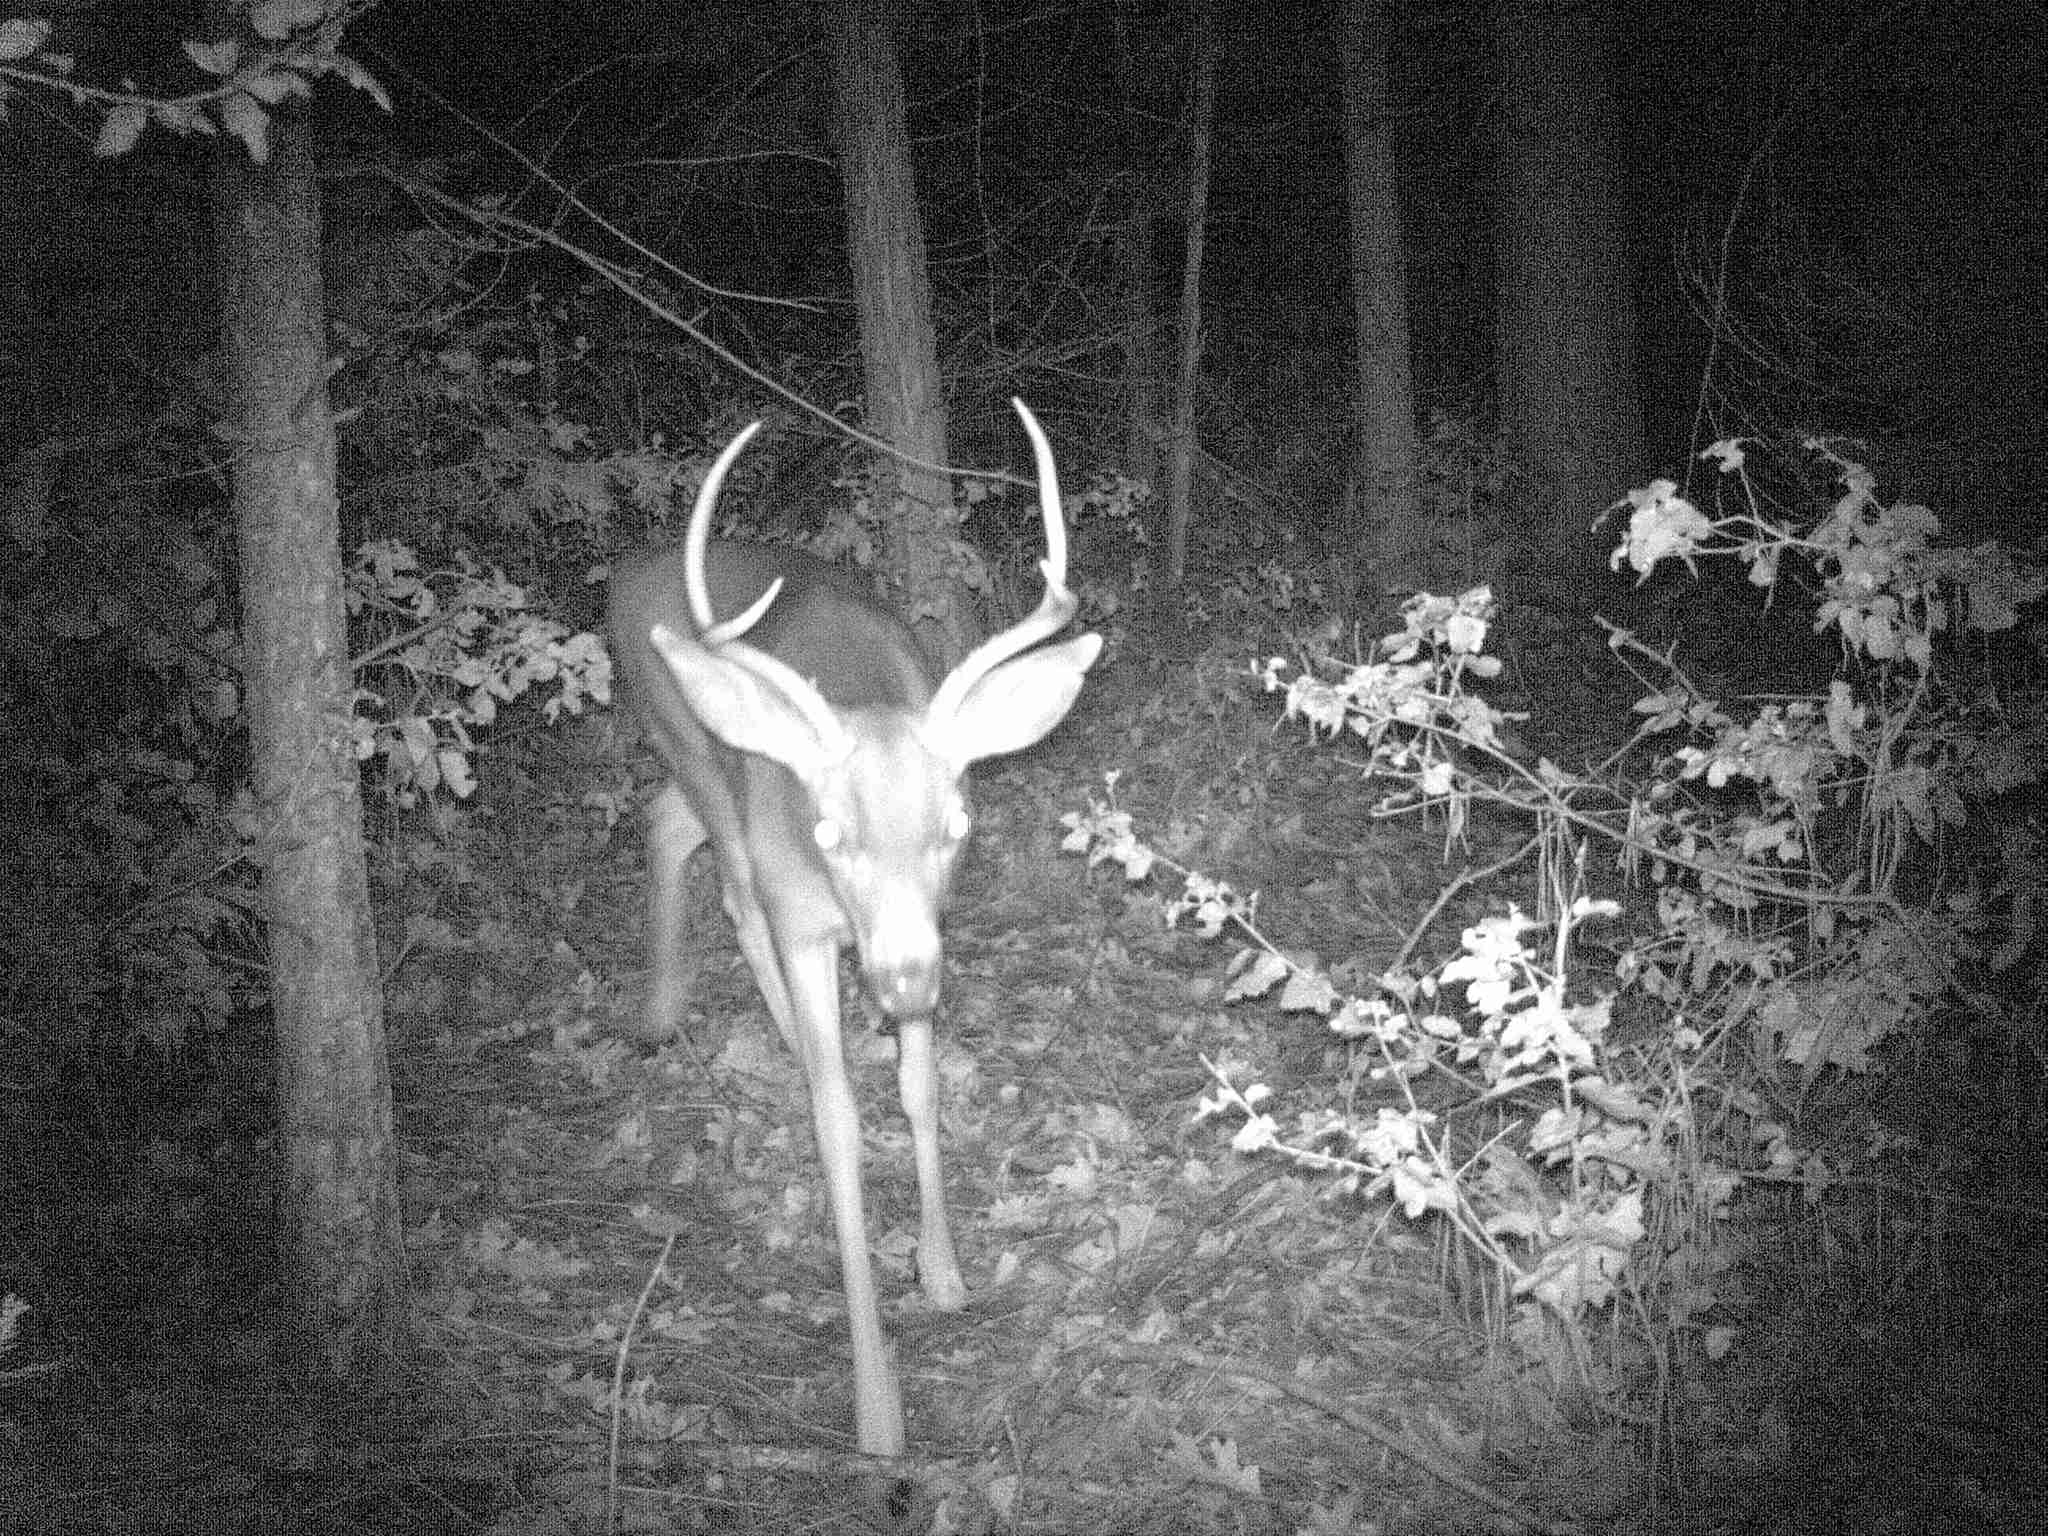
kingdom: Animalia
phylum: Chordata
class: Mammalia
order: Artiodactyla
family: Cervidae
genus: Odocoileus
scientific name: Odocoileus hemionus
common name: Mule deer
